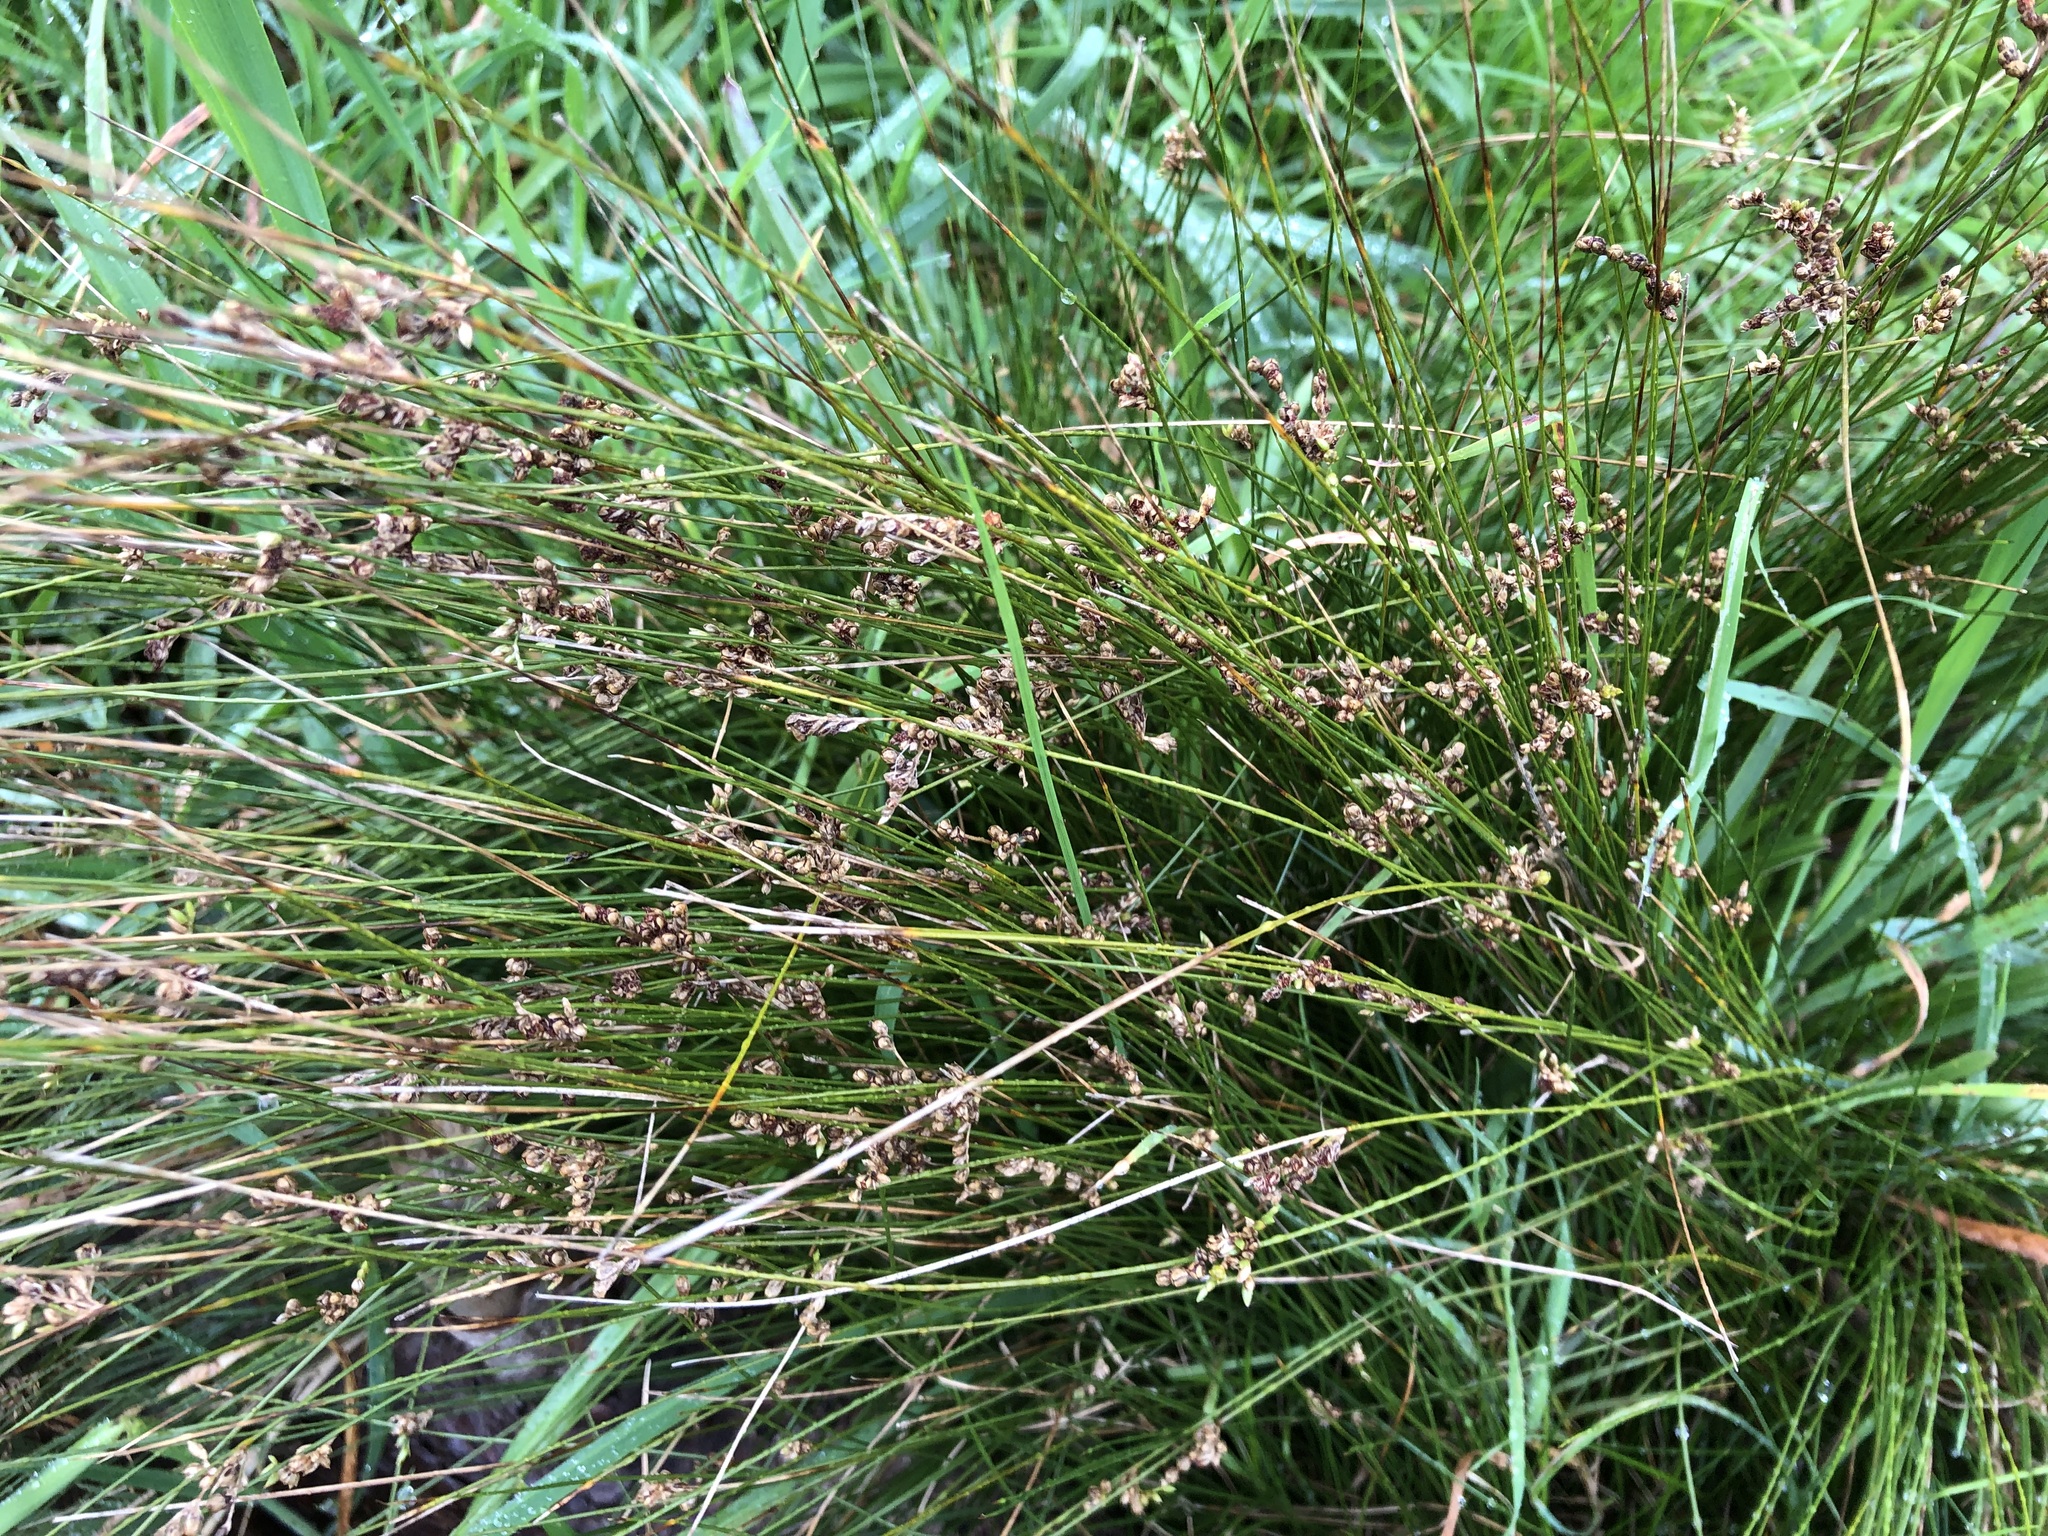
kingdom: Plantae
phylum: Tracheophyta
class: Liliopsida
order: Poales
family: Juncaceae
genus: Juncus
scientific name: Juncus effusus
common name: Soft rush
